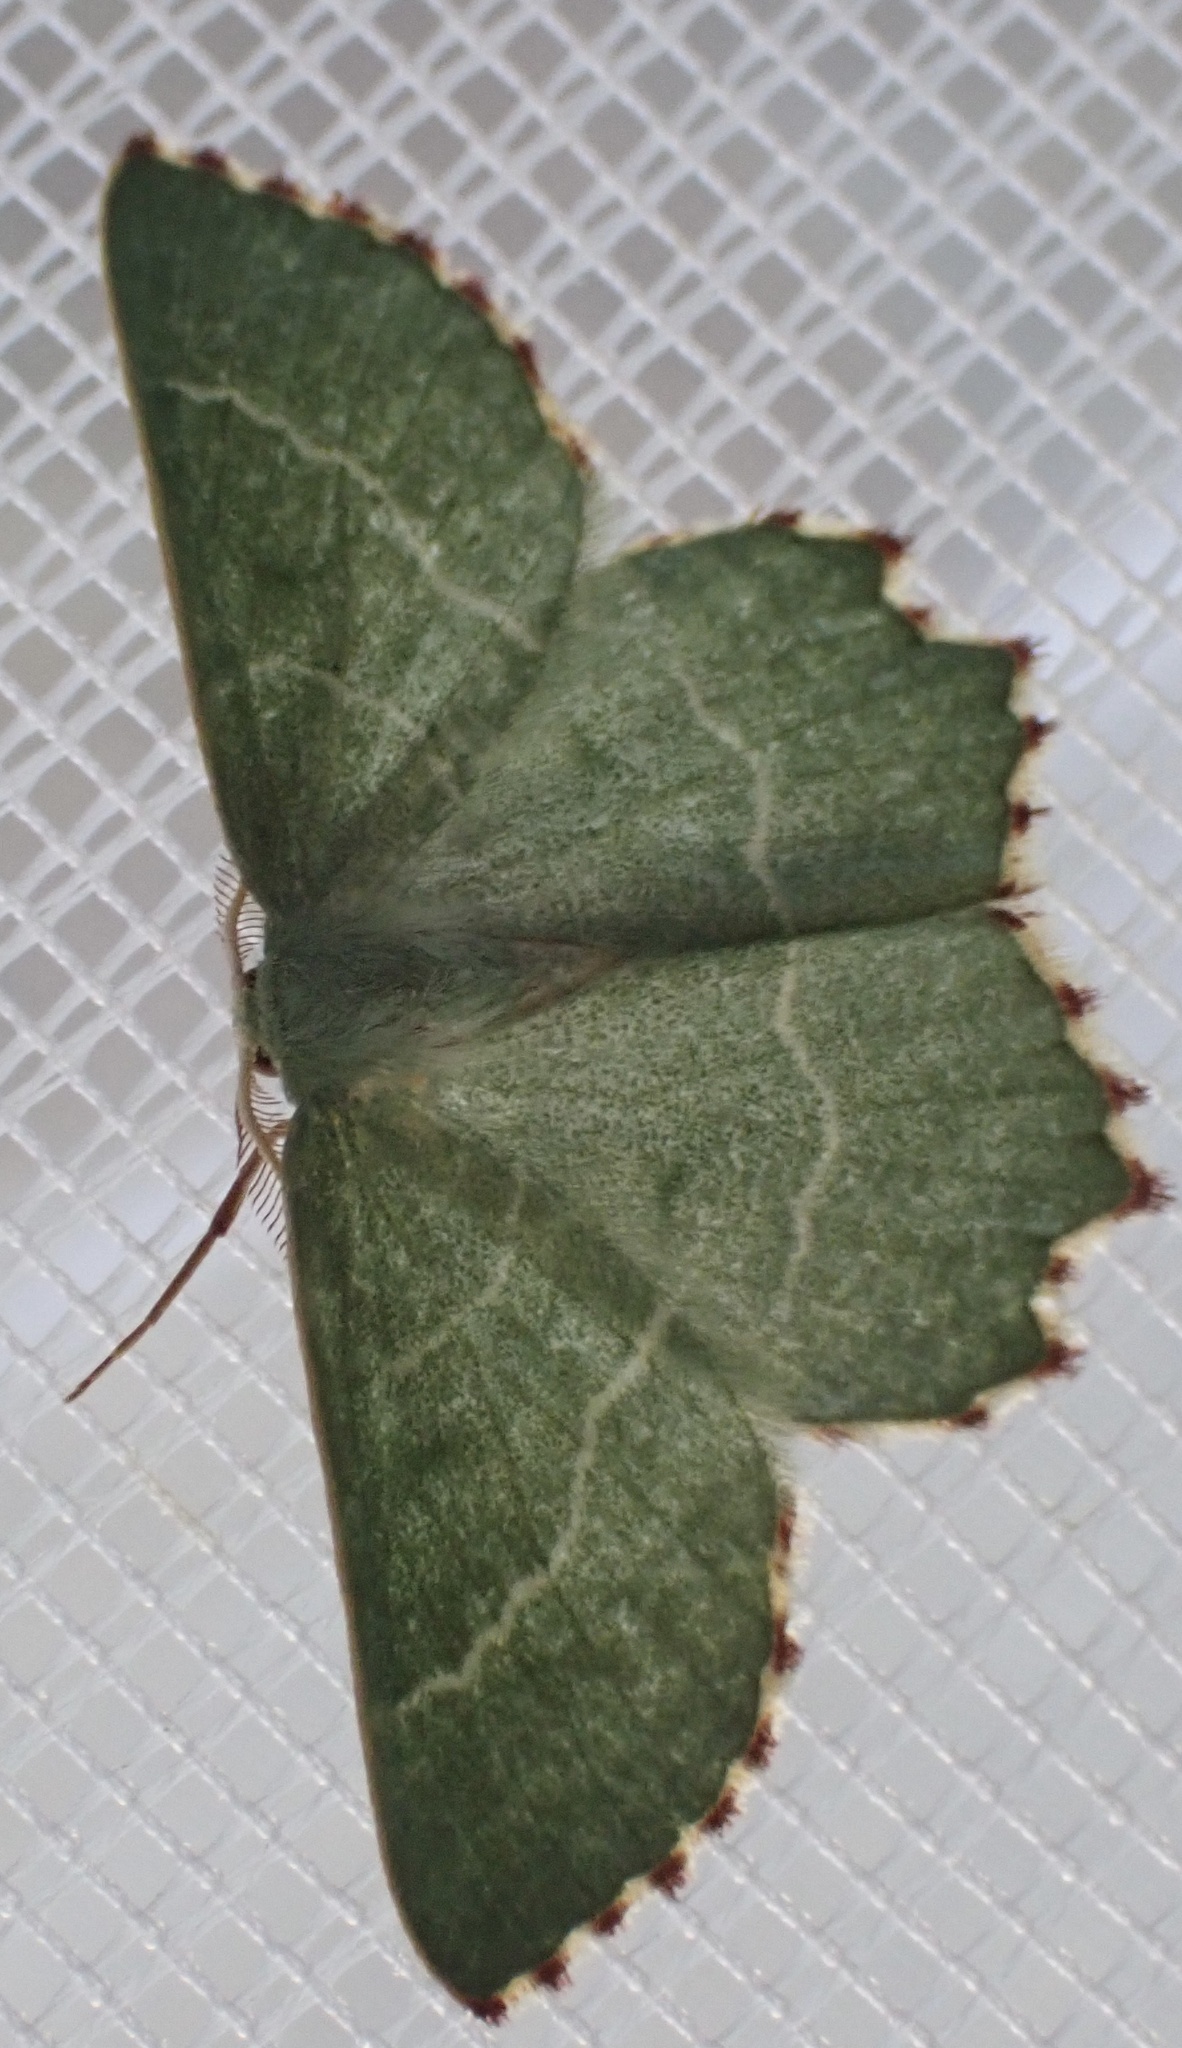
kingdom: Animalia
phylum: Arthropoda
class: Insecta
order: Lepidoptera
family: Geometridae
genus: Thalera
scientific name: Thalera fimbrialis
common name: Sussex emerald
